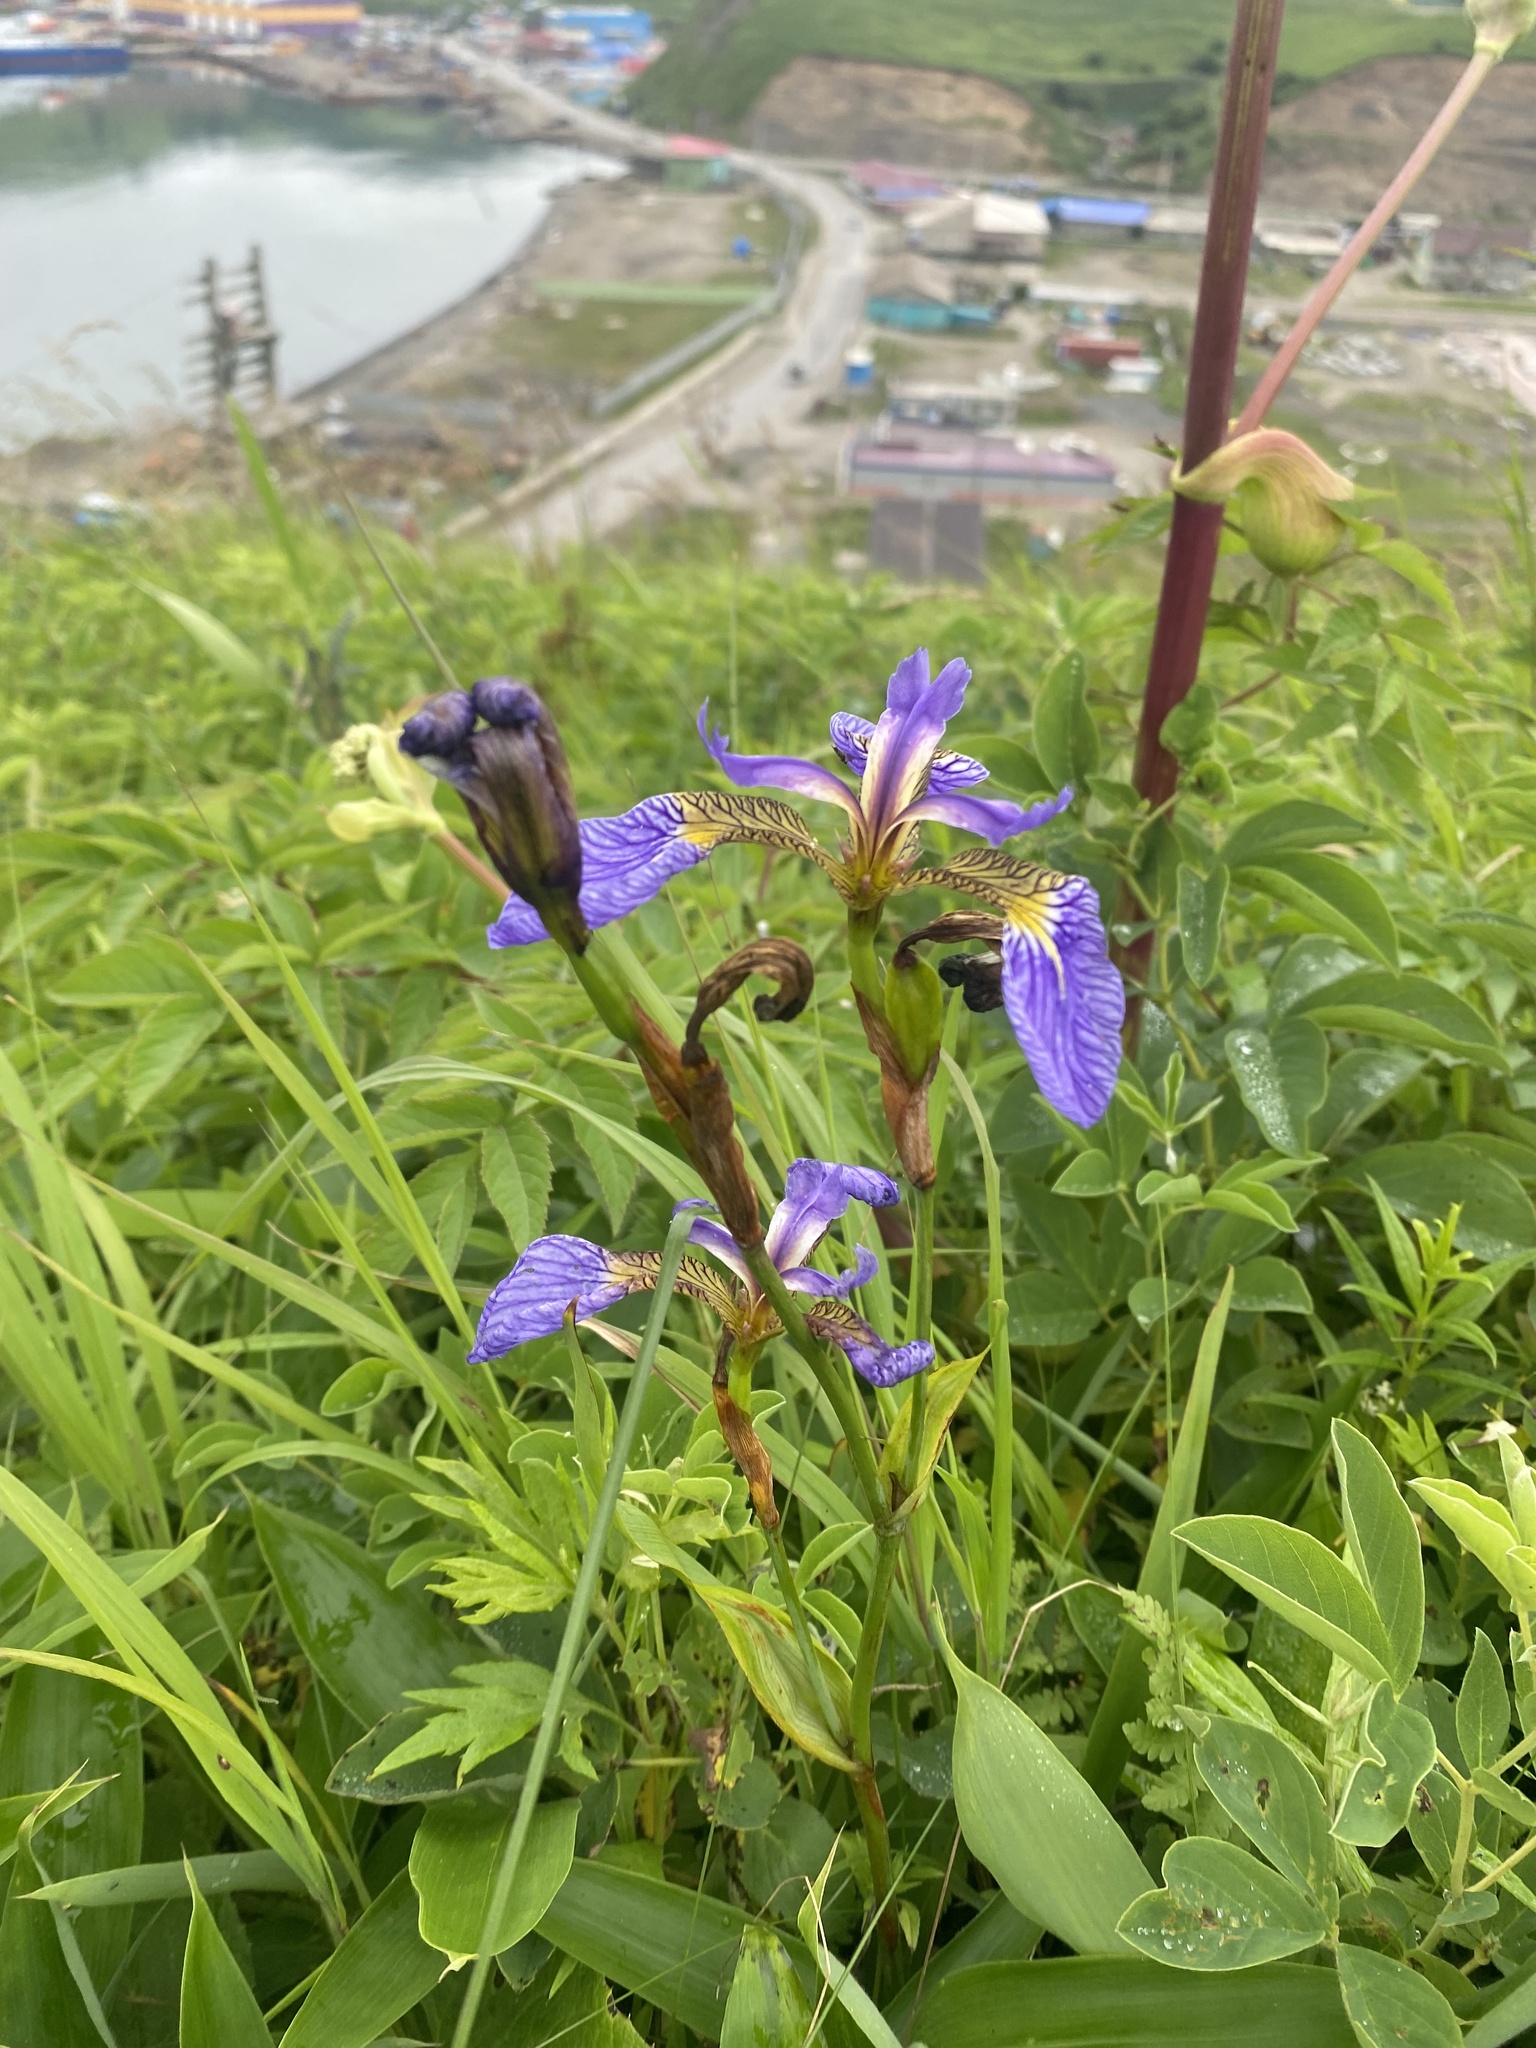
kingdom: Plantae
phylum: Tracheophyta
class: Liliopsida
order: Asparagales
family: Iridaceae
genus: Iris
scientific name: Iris setosa
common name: Arctic blue flag
